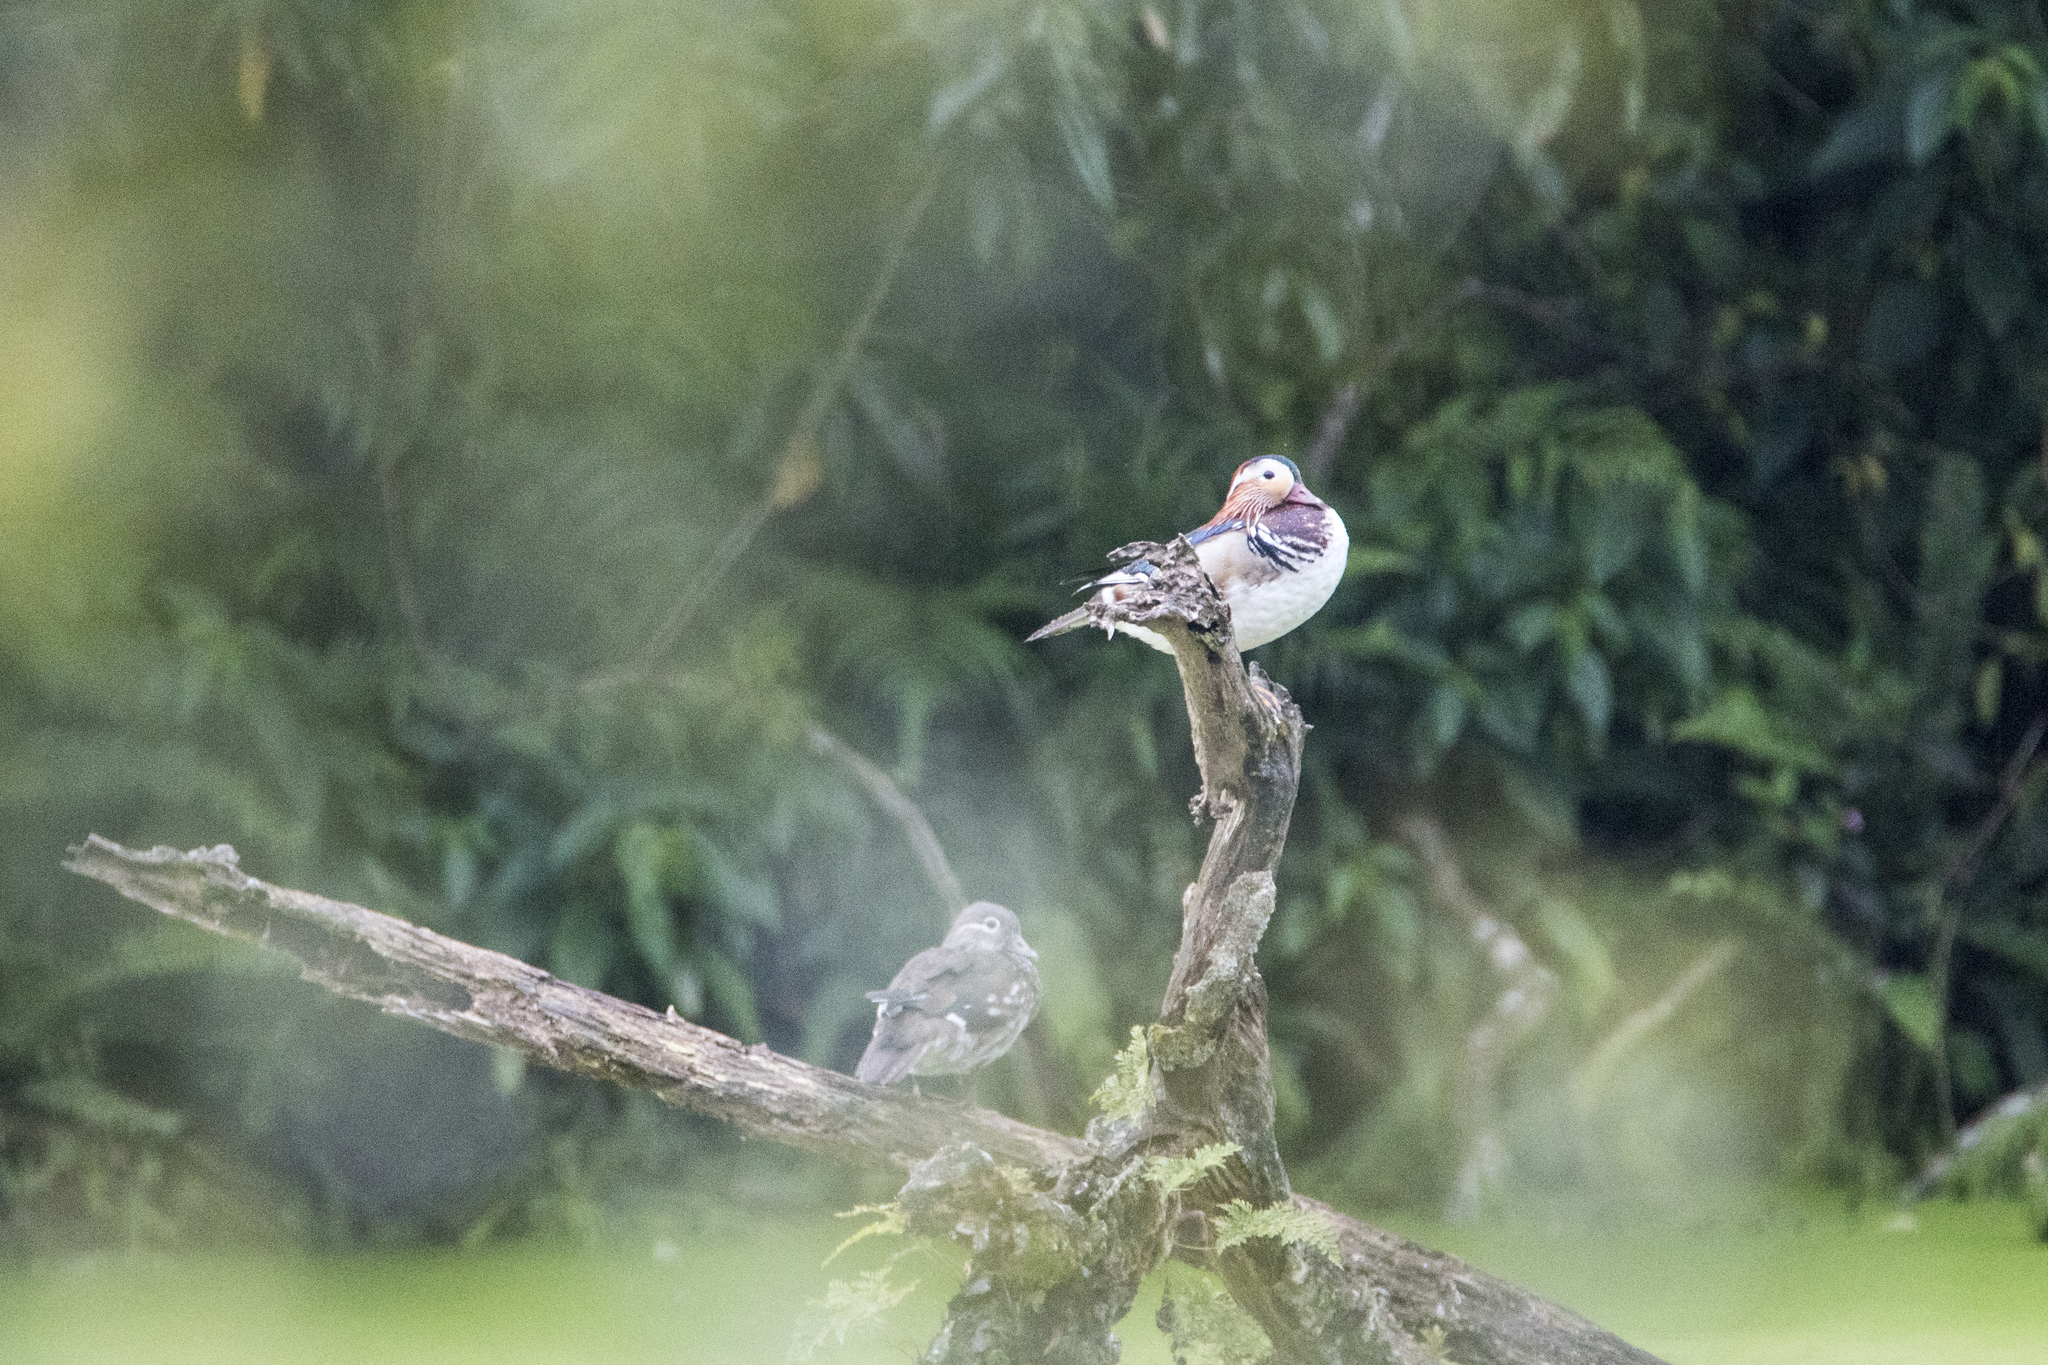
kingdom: Animalia
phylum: Chordata
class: Aves
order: Anseriformes
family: Anatidae
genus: Aix
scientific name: Aix galericulata
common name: Mandarin duck
